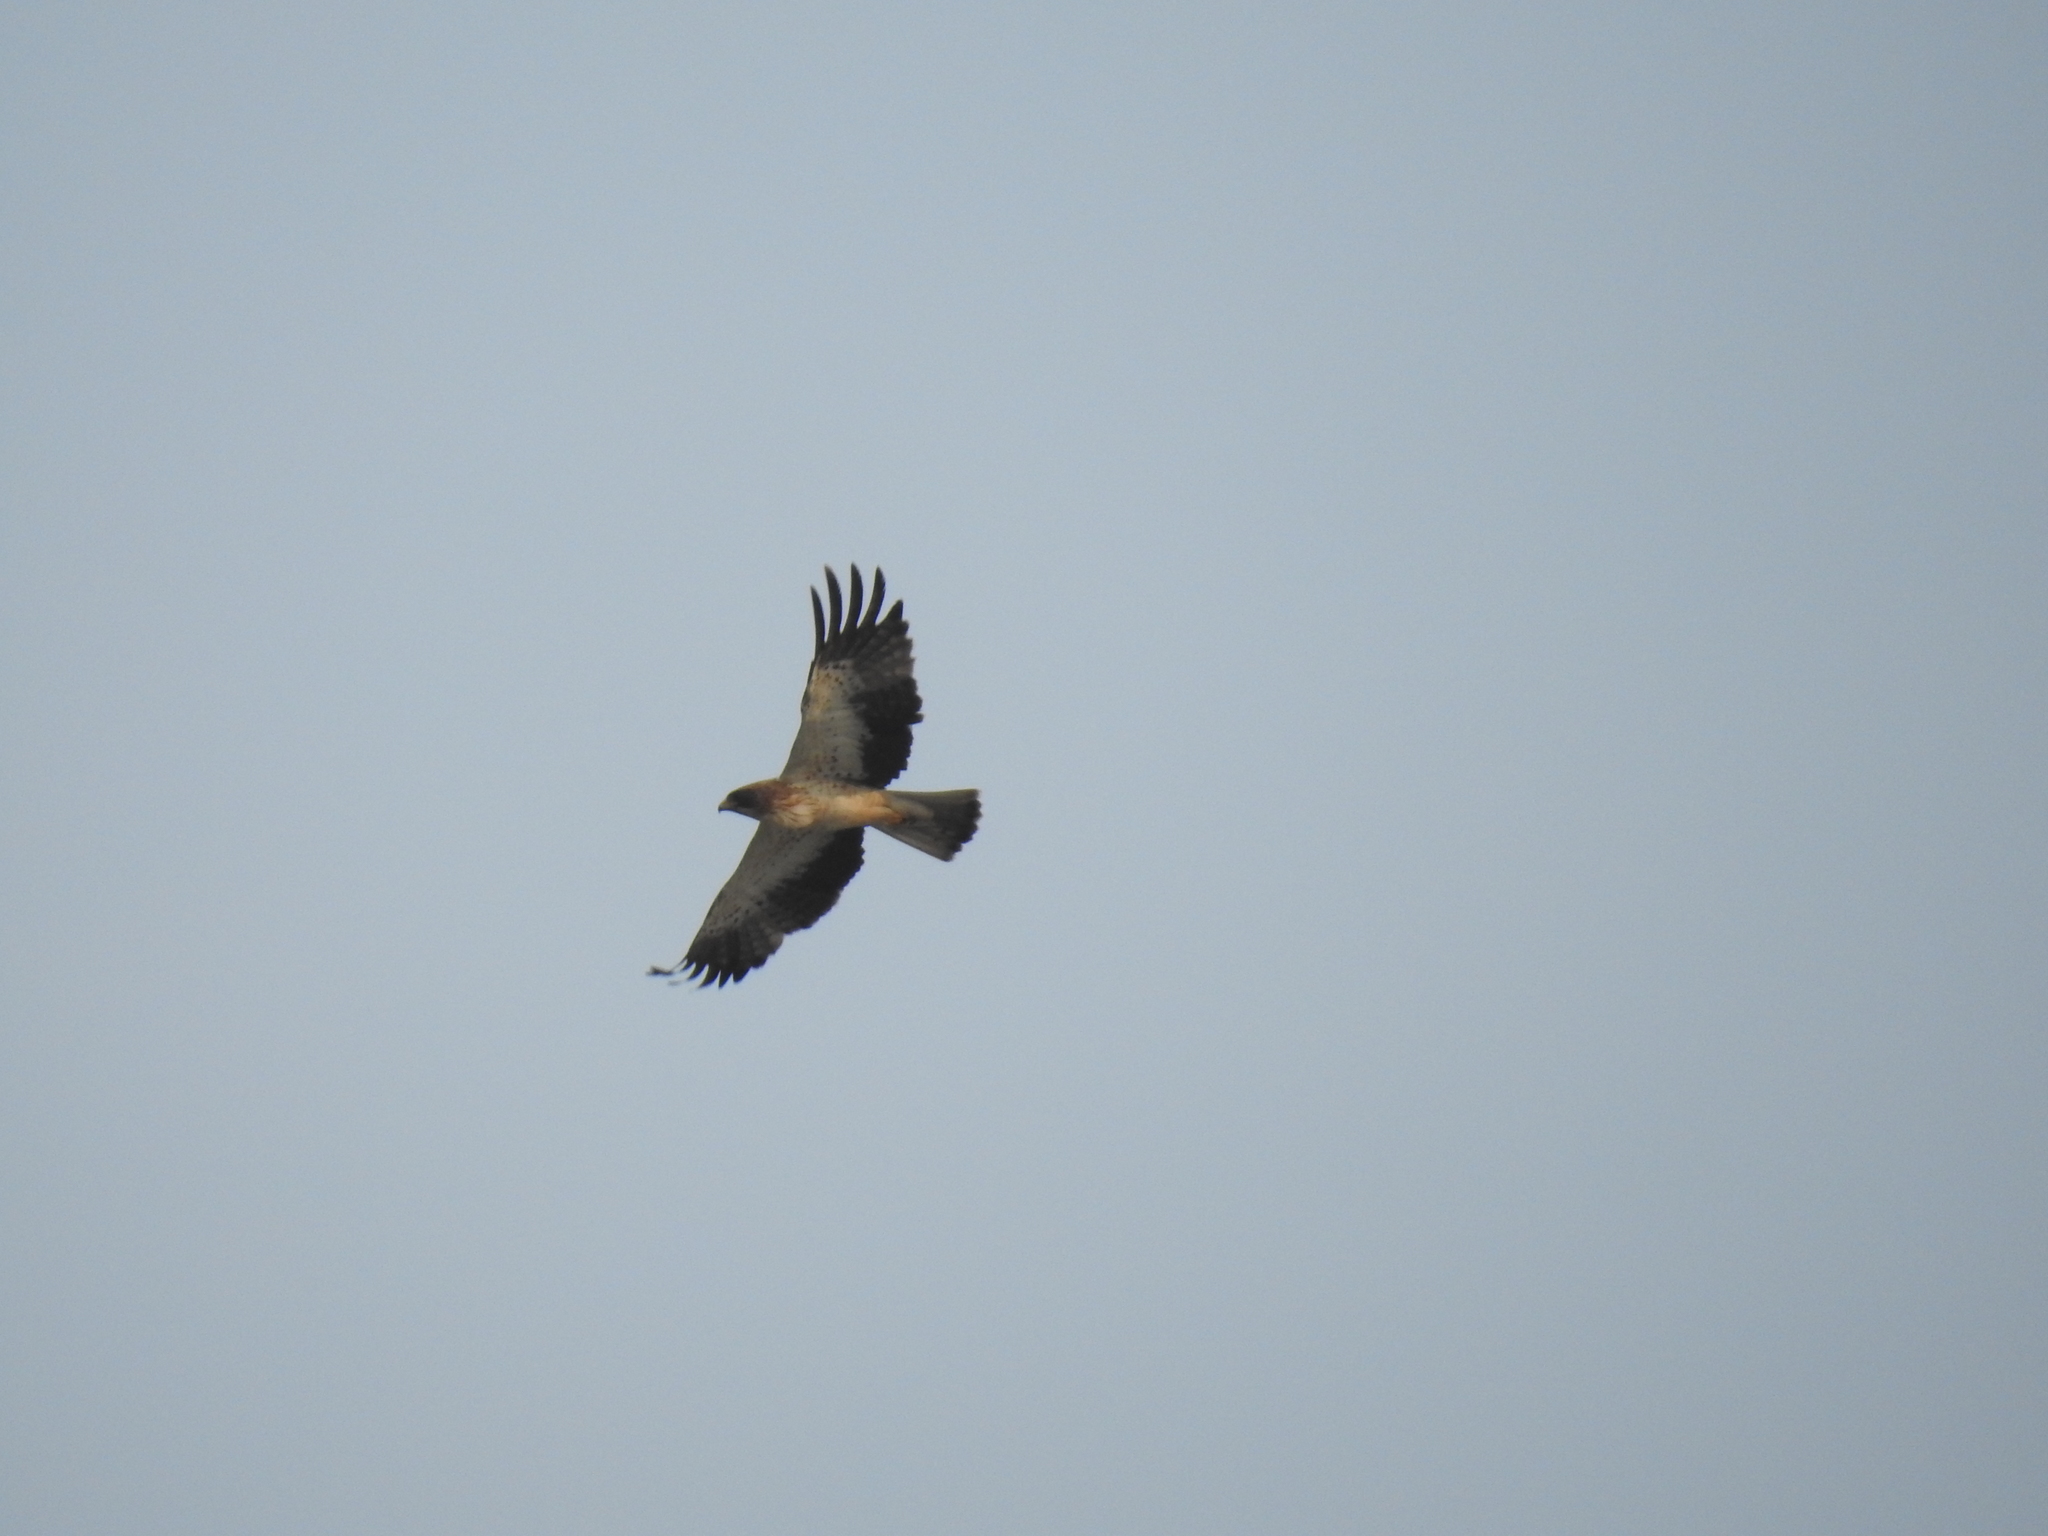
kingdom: Animalia
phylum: Chordata
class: Aves
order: Accipitriformes
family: Accipitridae
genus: Hieraaetus
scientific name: Hieraaetus pennatus
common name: Booted eagle
